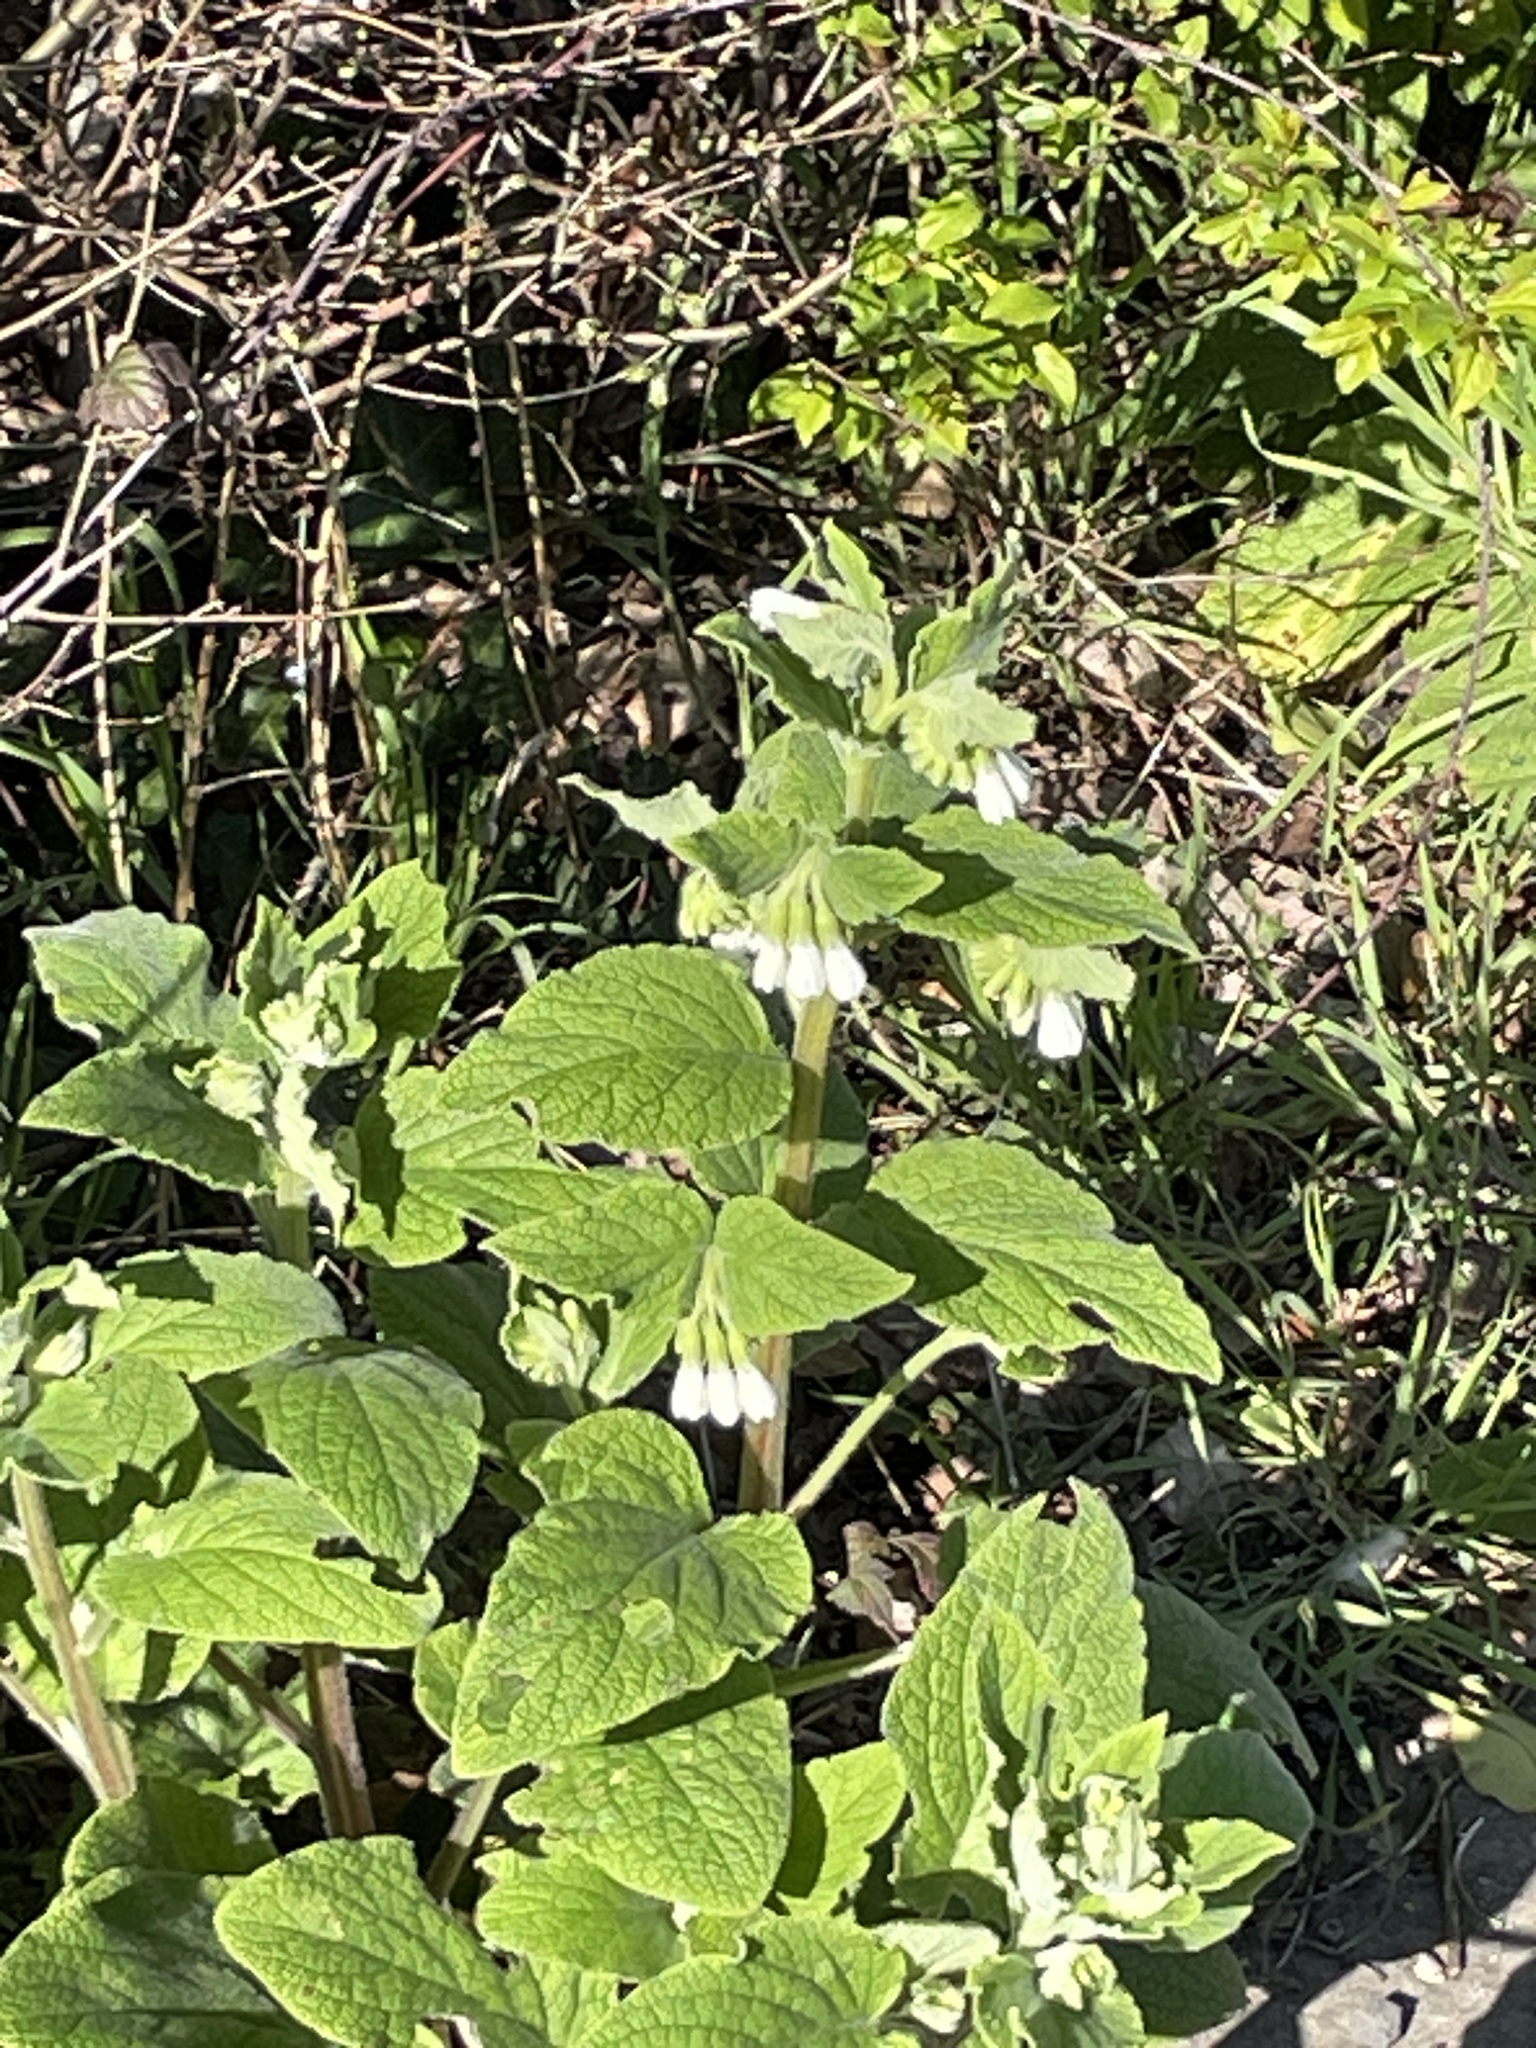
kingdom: Plantae
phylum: Tracheophyta
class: Magnoliopsida
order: Boraginales
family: Boraginaceae
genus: Symphytum
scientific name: Symphytum orientale
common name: White comfrey
